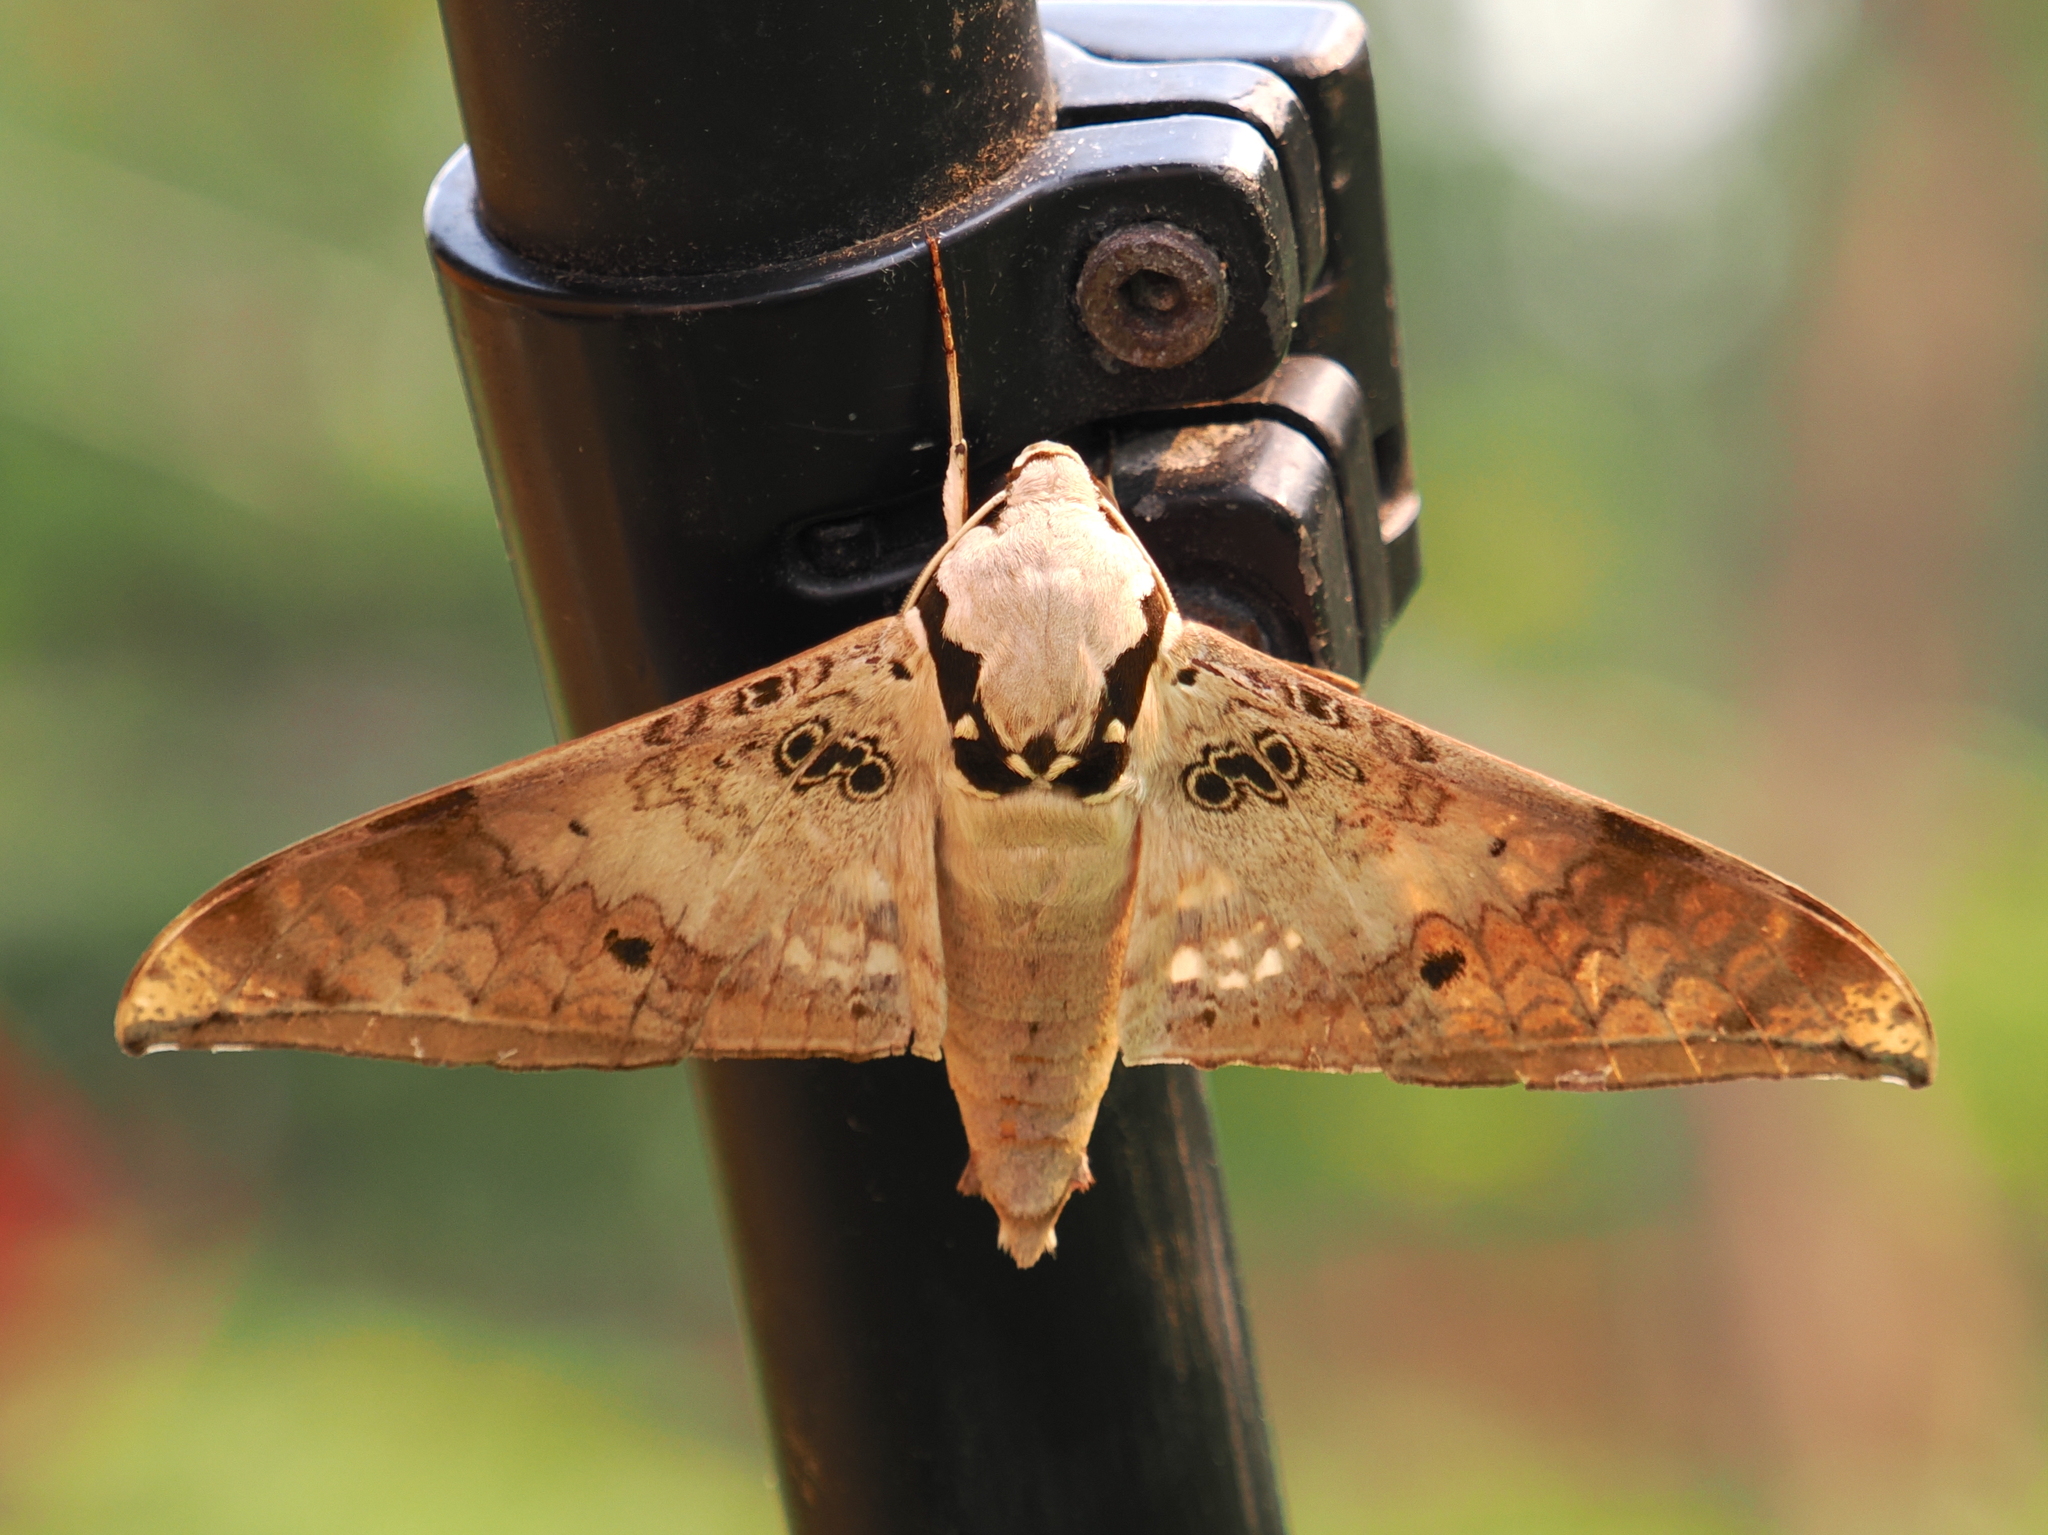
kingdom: Animalia
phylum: Arthropoda
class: Insecta
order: Lepidoptera
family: Sphingidae
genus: Ambulyx
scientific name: Ambulyx canescens
